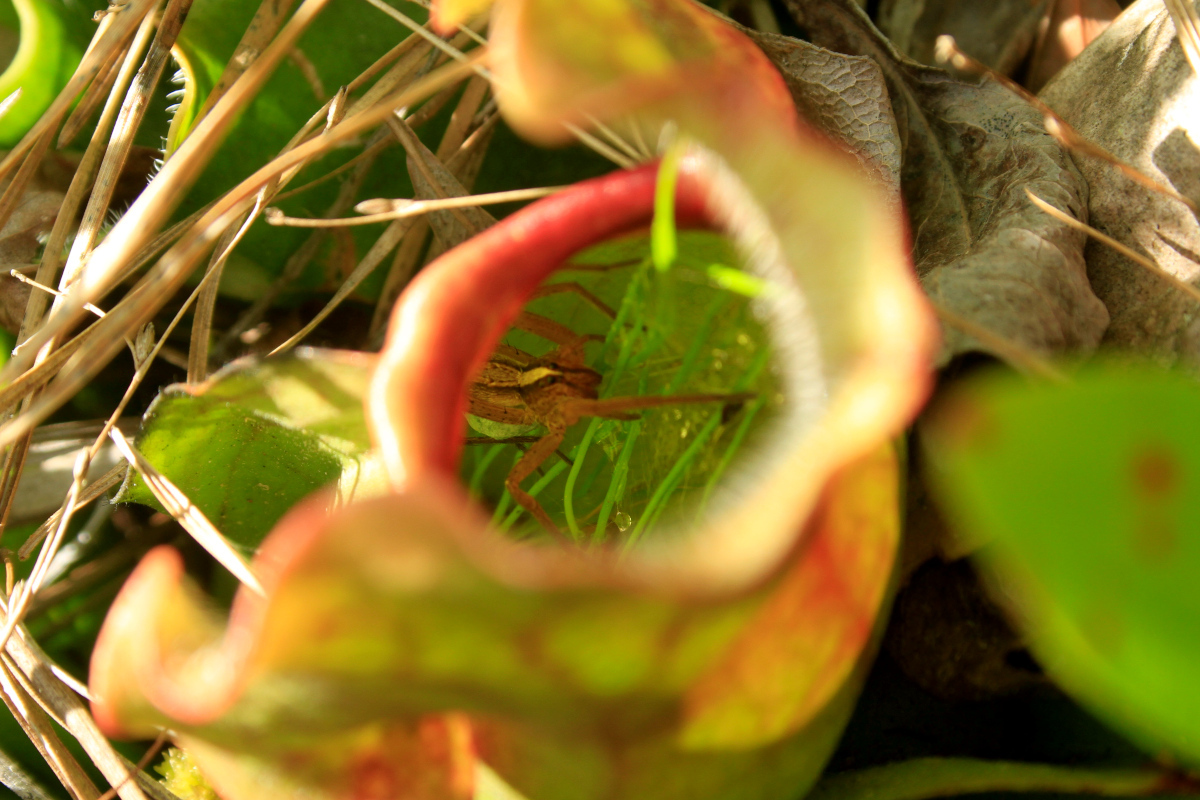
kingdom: Animalia
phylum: Arthropoda
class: Arachnida
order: Araneae
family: Oxyopidae
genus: Oxyopes
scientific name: Oxyopes salticus
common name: Lynx spiders
